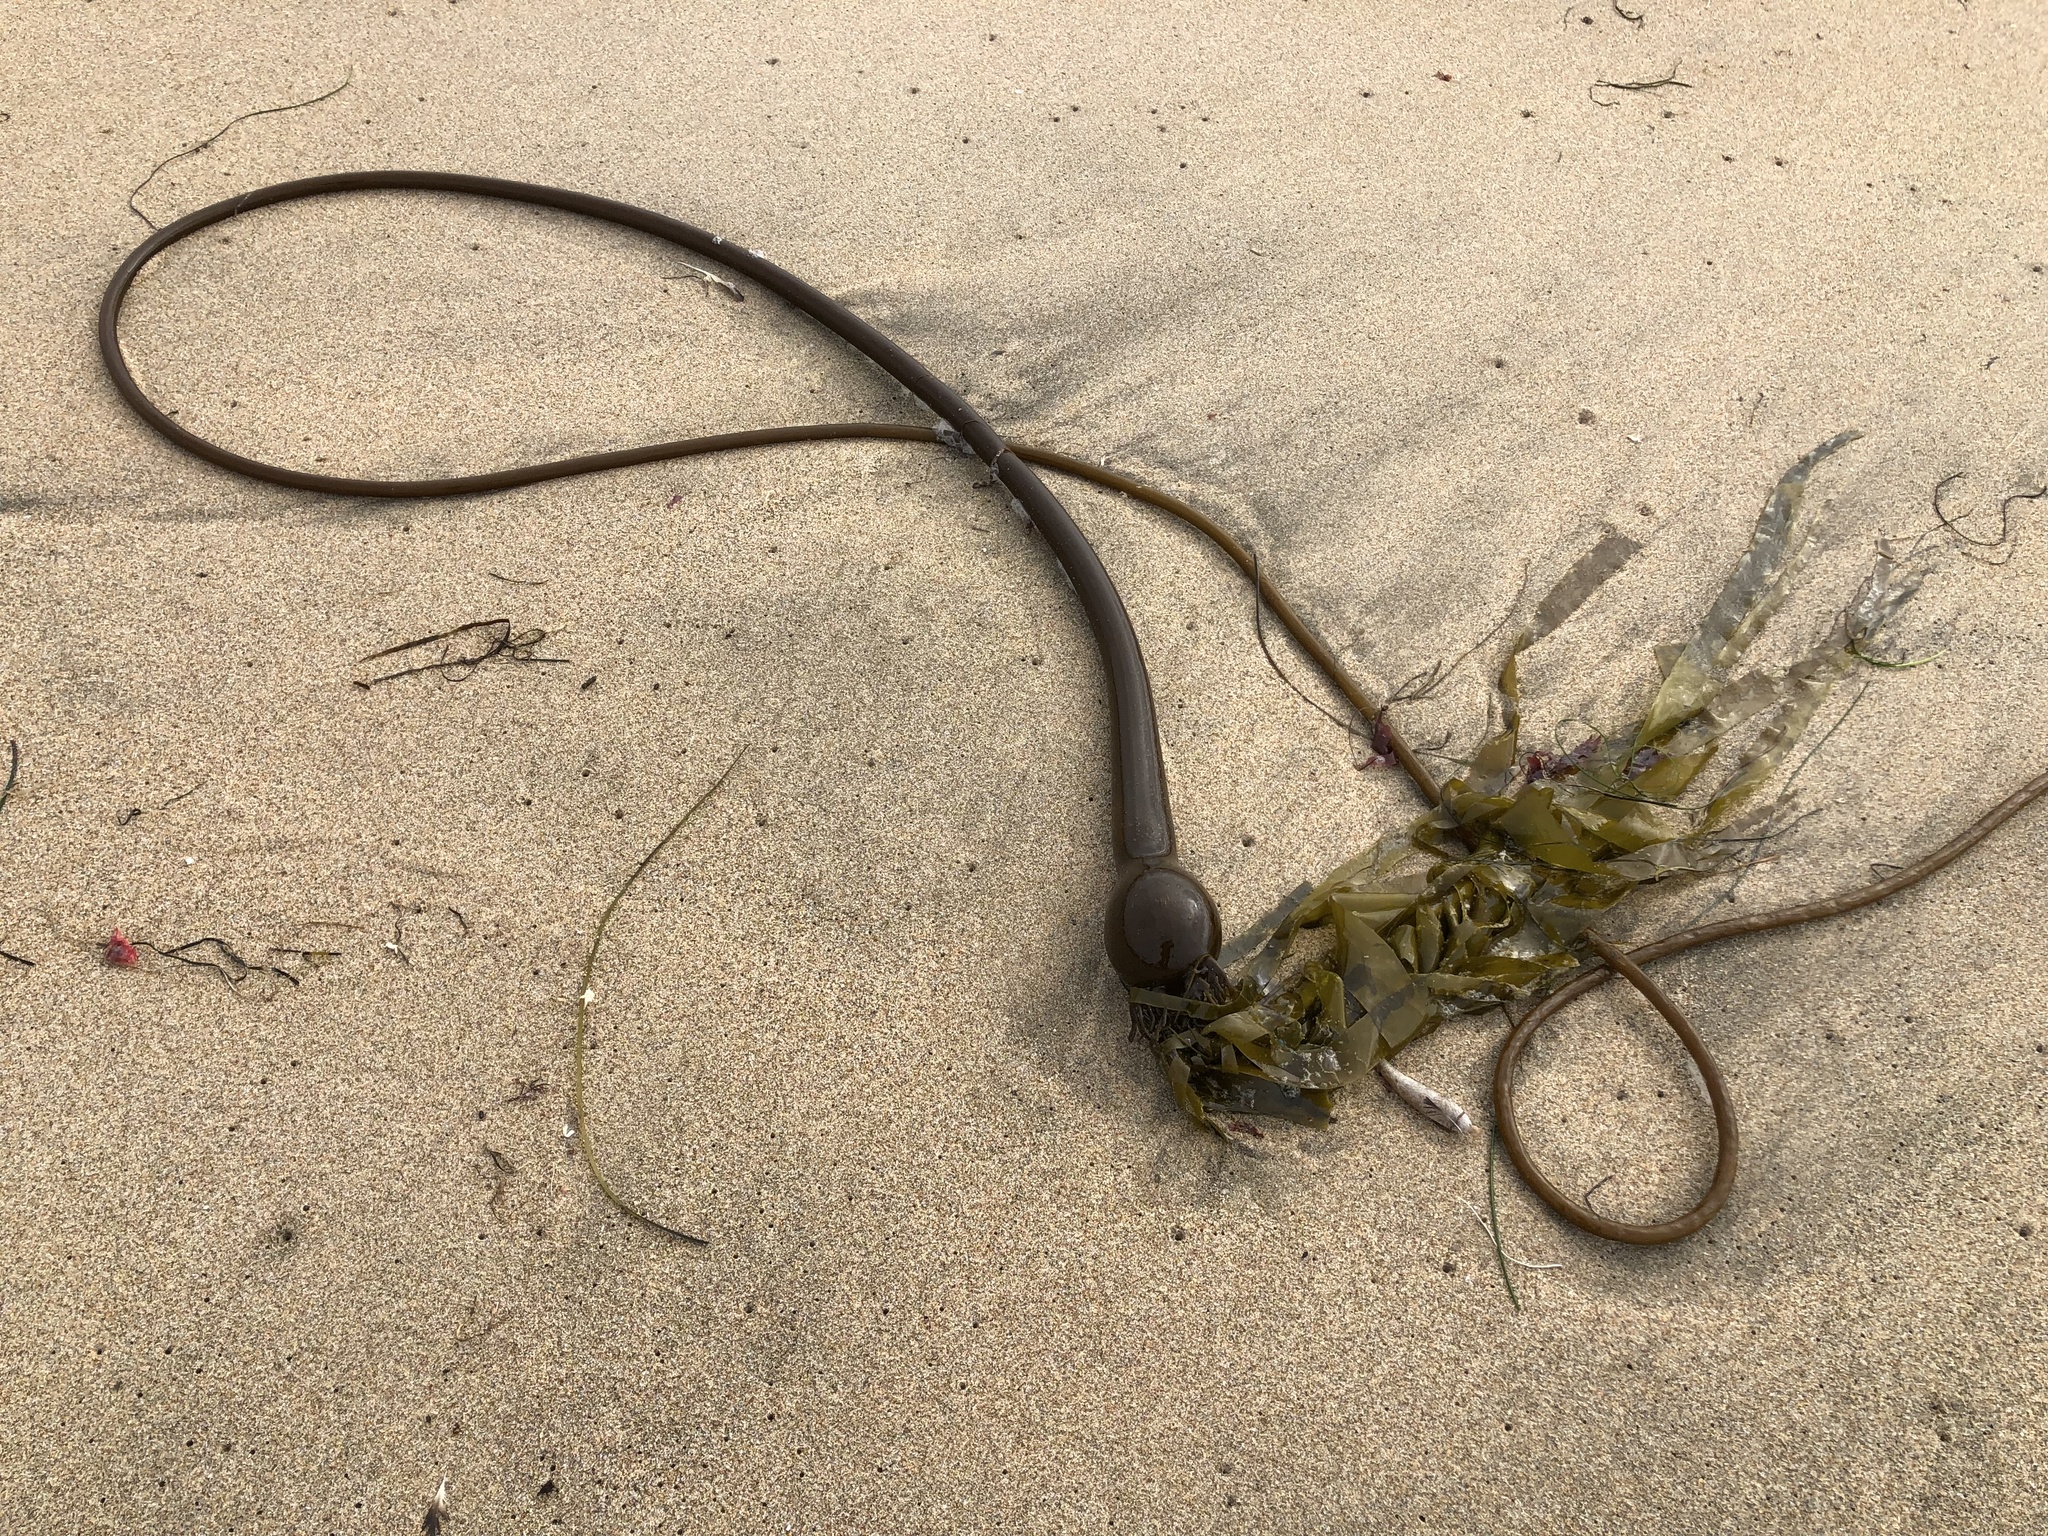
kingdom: Chromista
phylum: Ochrophyta
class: Phaeophyceae
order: Laminariales
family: Laminariaceae
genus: Nereocystis
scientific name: Nereocystis luetkeana
